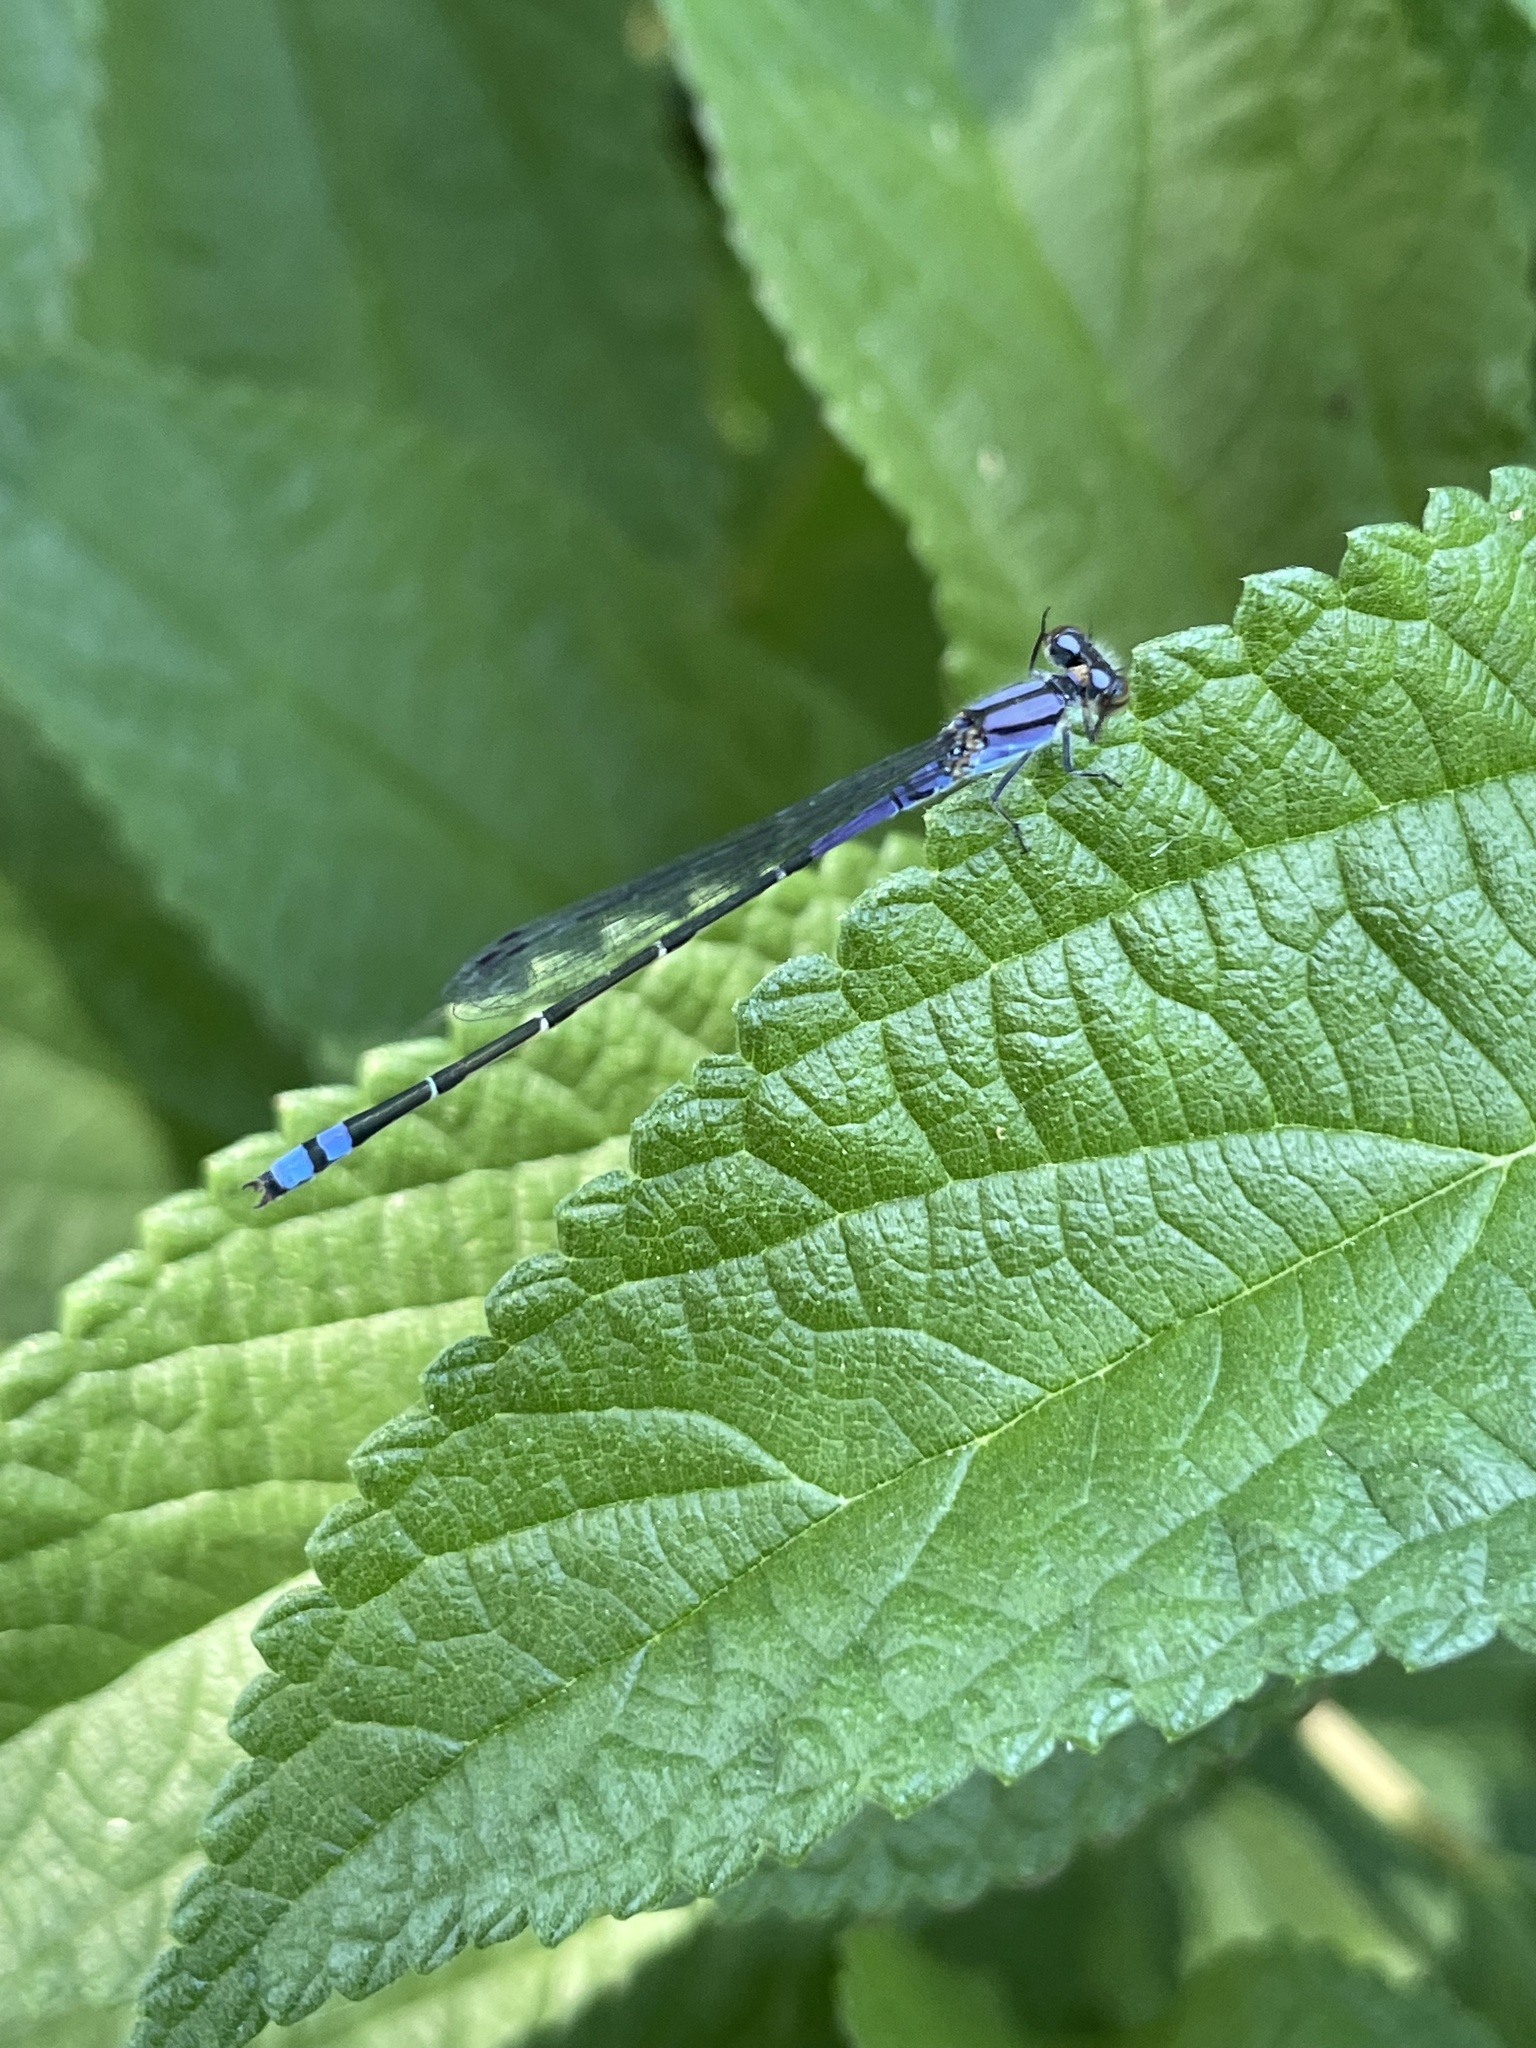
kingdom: Animalia
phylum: Arthropoda
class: Insecta
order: Odonata
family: Coenagrionidae
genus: Enallagma
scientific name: Enallagma novaehispaniae
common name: Neotropical bluet
